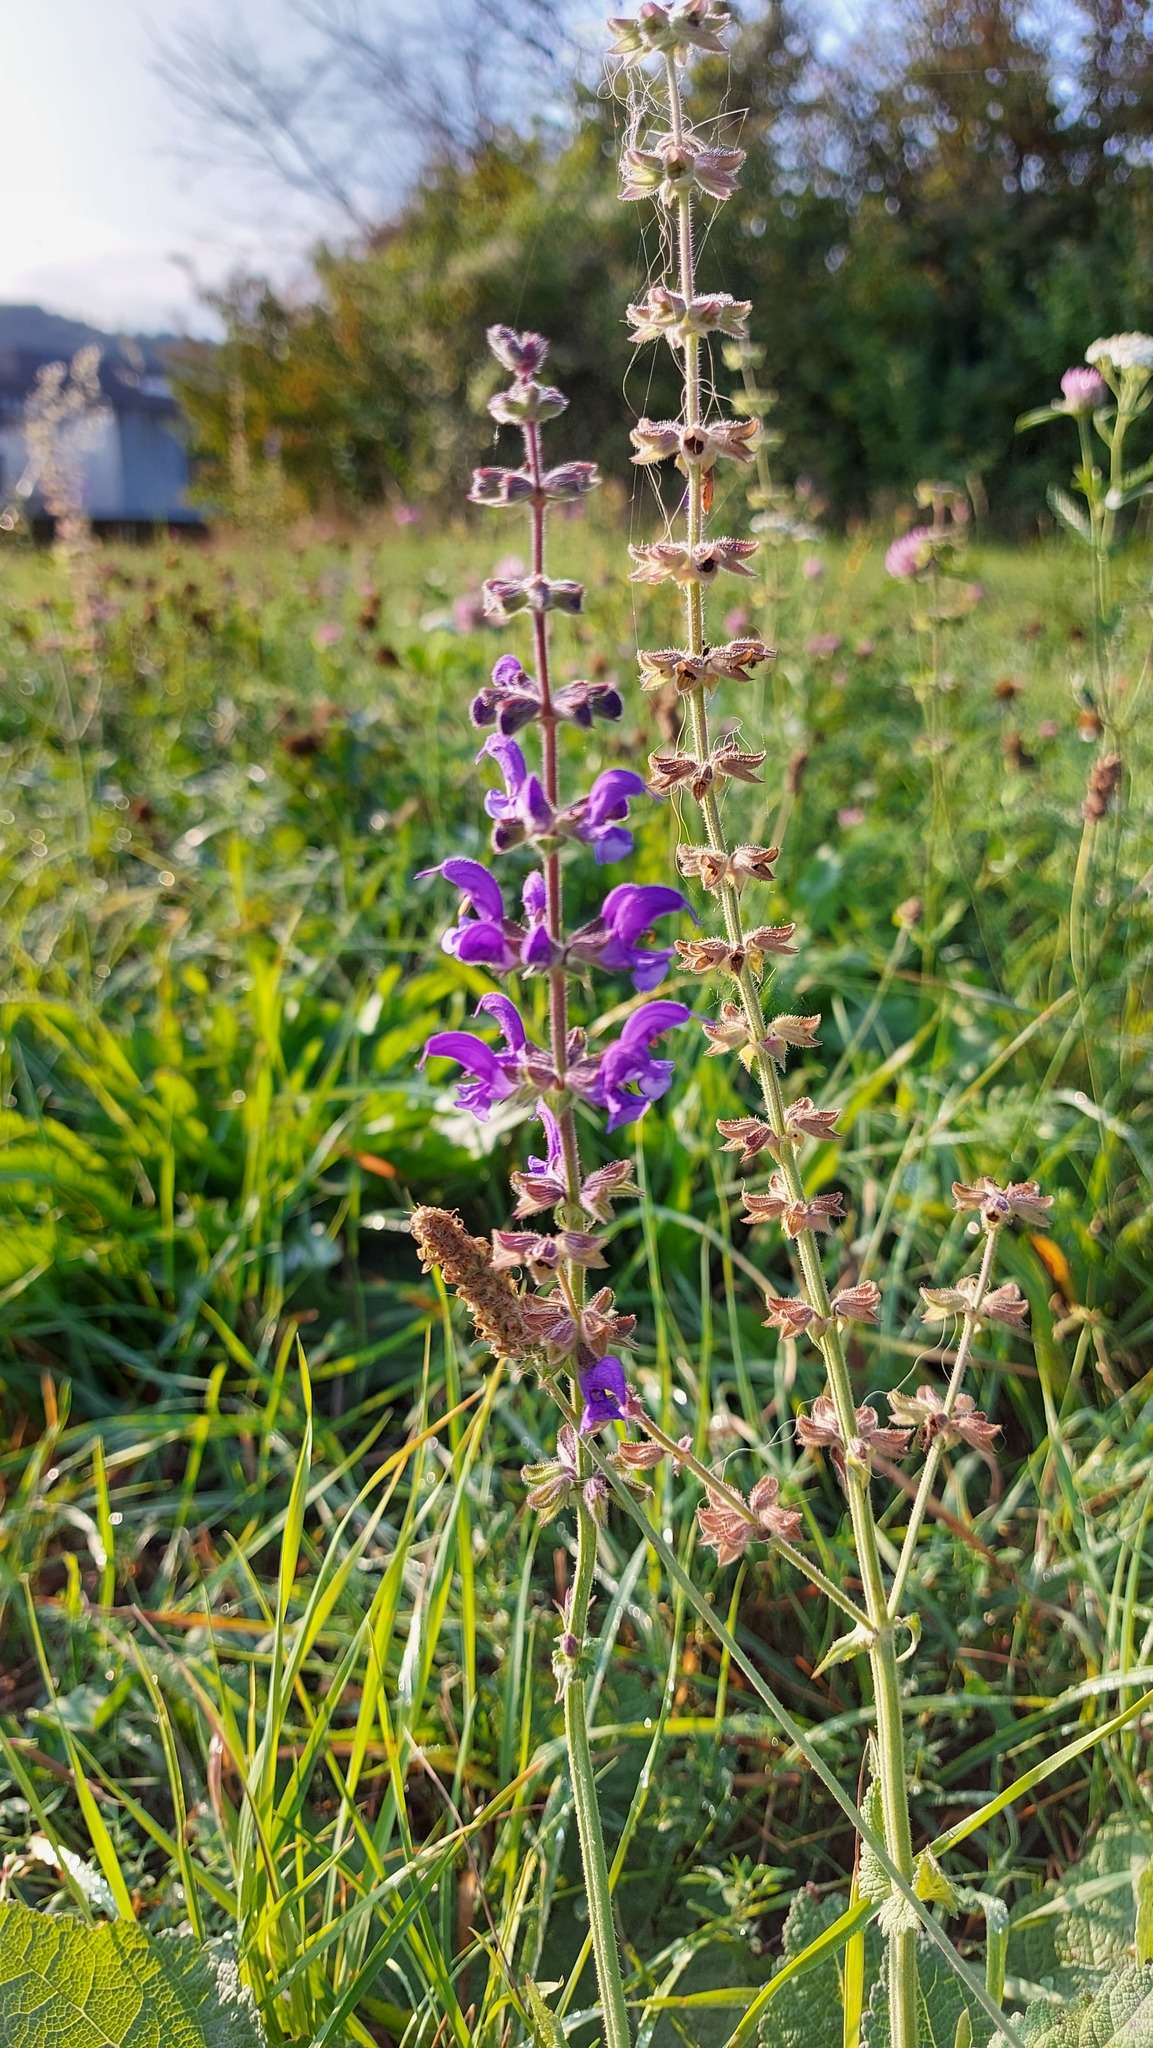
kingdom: Plantae
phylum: Tracheophyta
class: Magnoliopsida
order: Lamiales
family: Lamiaceae
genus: Salvia
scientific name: Salvia pratensis
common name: Meadow sage
